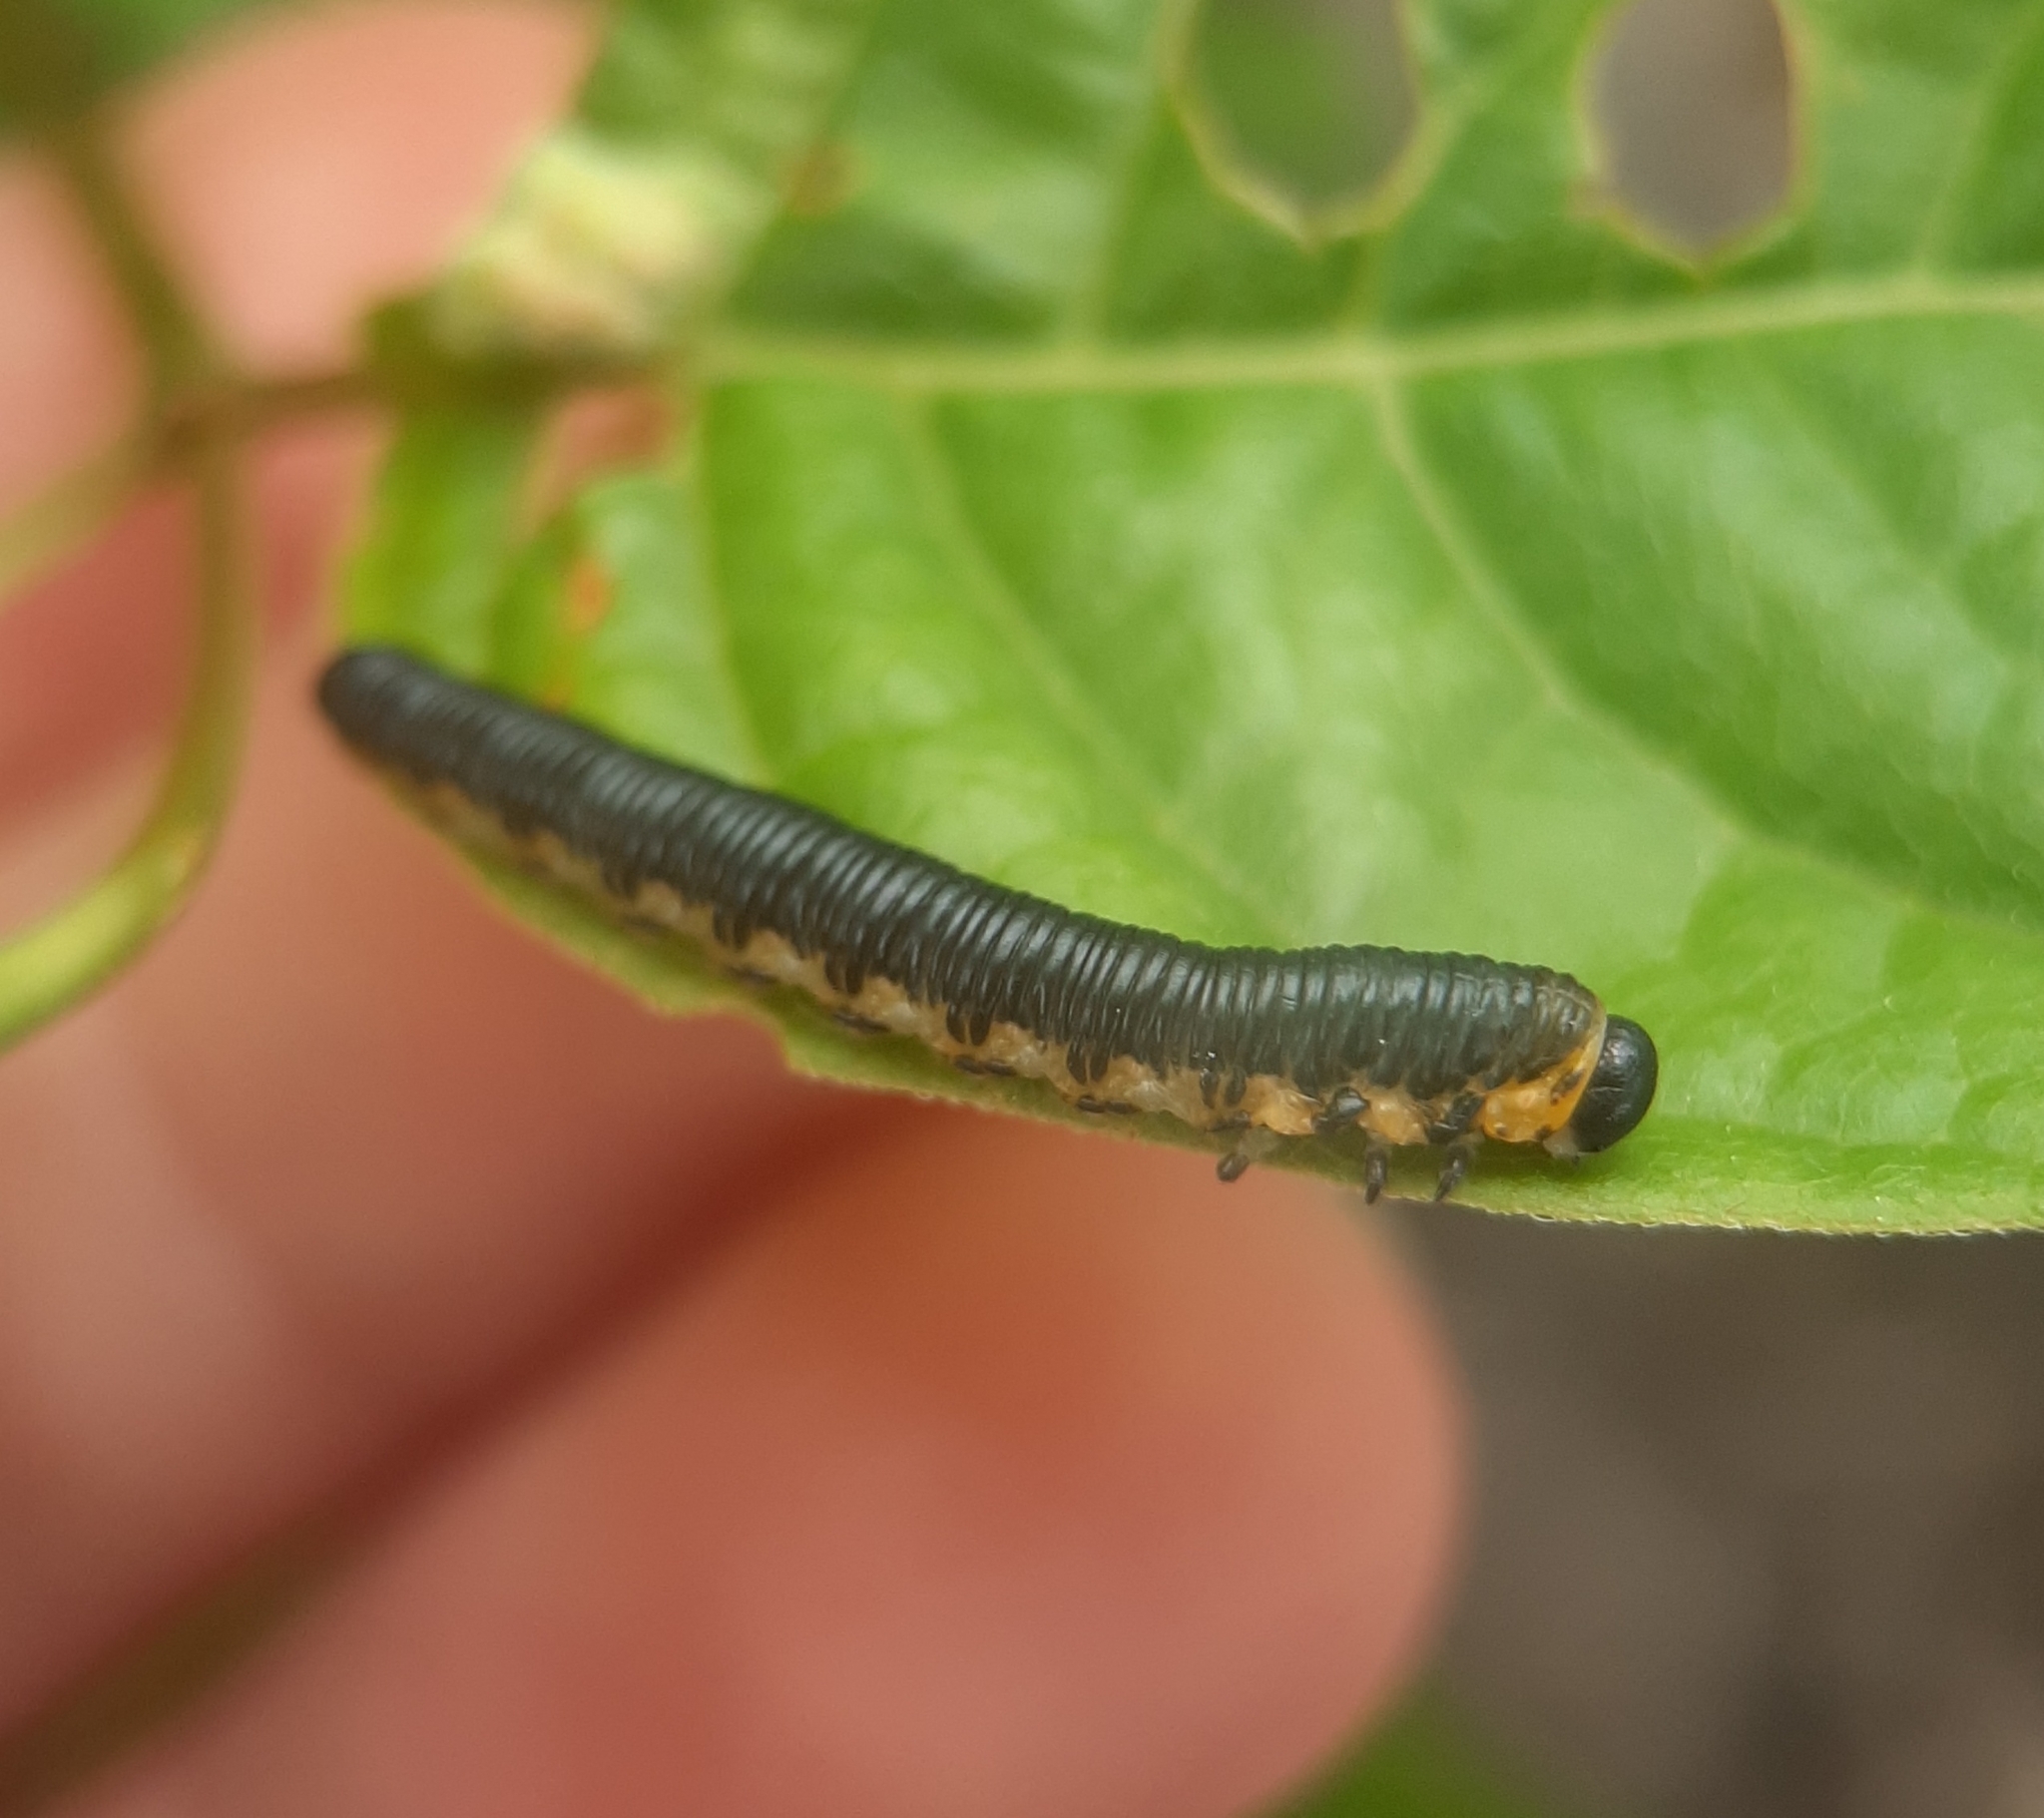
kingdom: Animalia
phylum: Arthropoda
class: Insecta
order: Hymenoptera
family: Tenthredinidae
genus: Pseudosiobla
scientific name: Pseudosiobla
